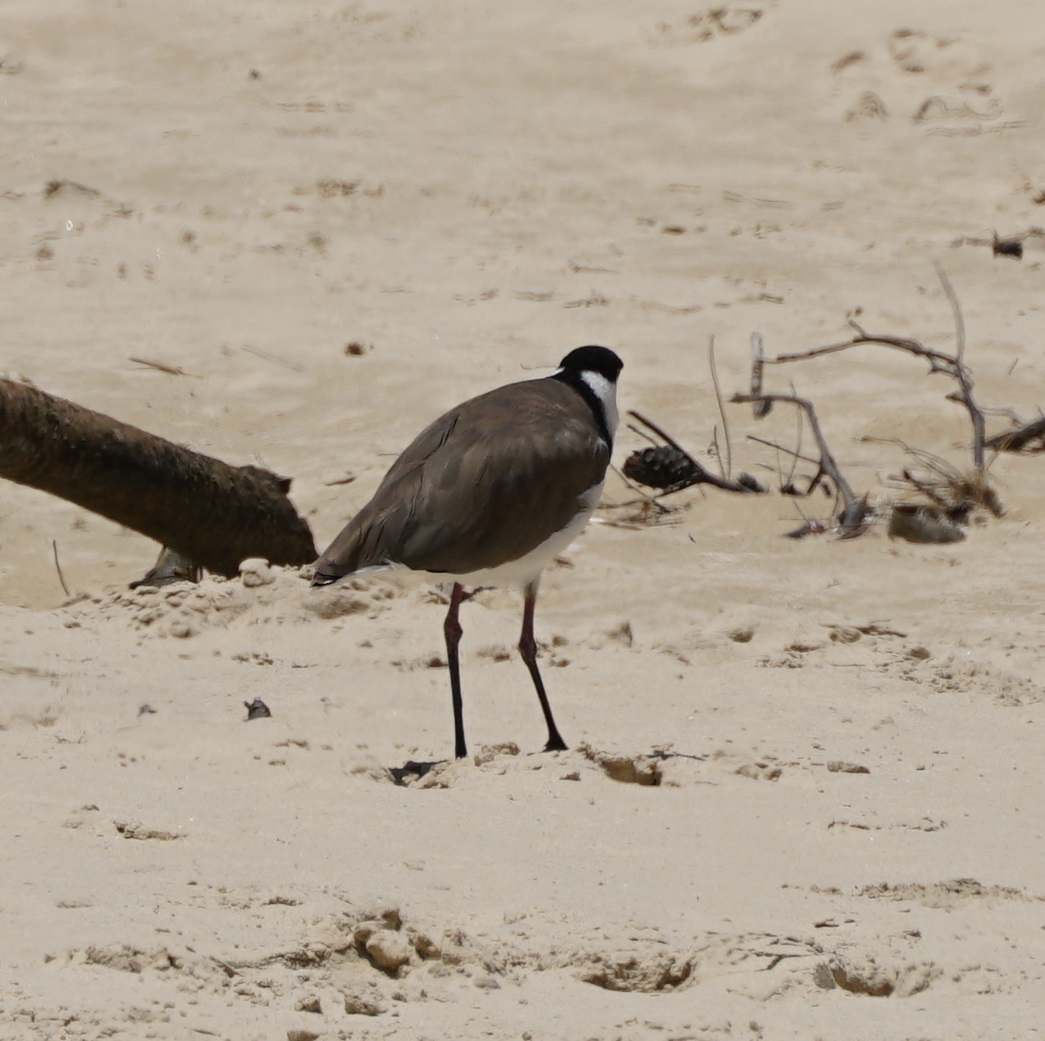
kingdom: Animalia
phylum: Chordata
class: Aves
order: Charadriiformes
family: Charadriidae
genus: Vanellus
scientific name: Vanellus miles
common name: Masked lapwing
